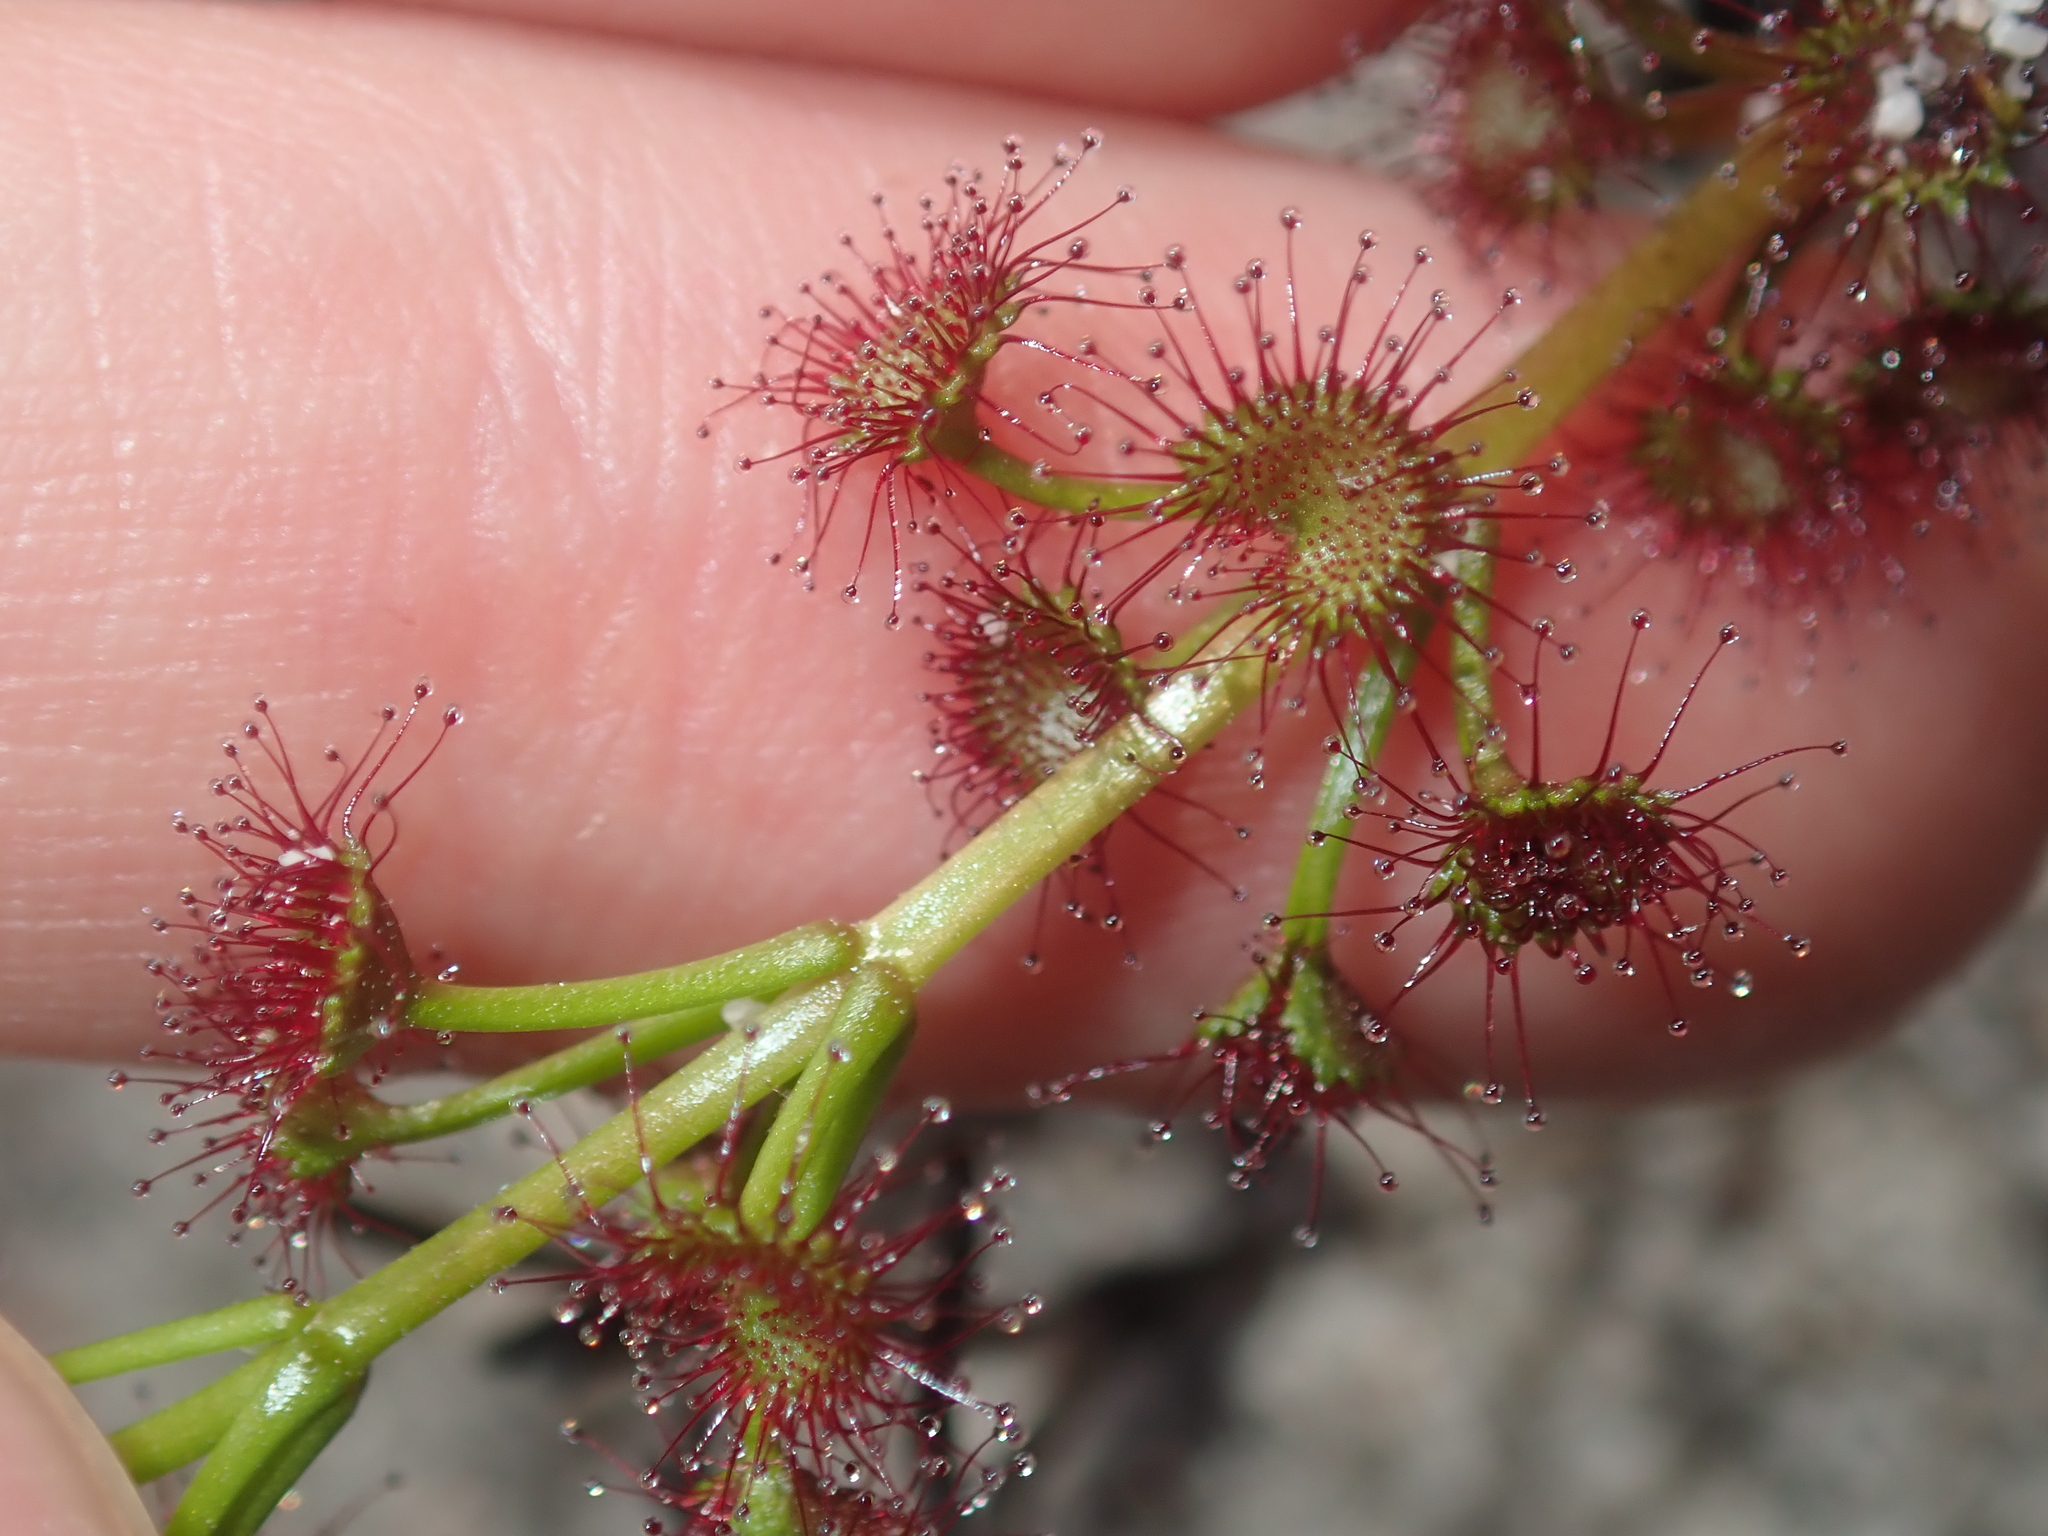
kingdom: Plantae
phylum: Tracheophyta
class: Magnoliopsida
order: Caryophyllales
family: Droseraceae
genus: Drosera
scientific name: Drosera stolonifera
